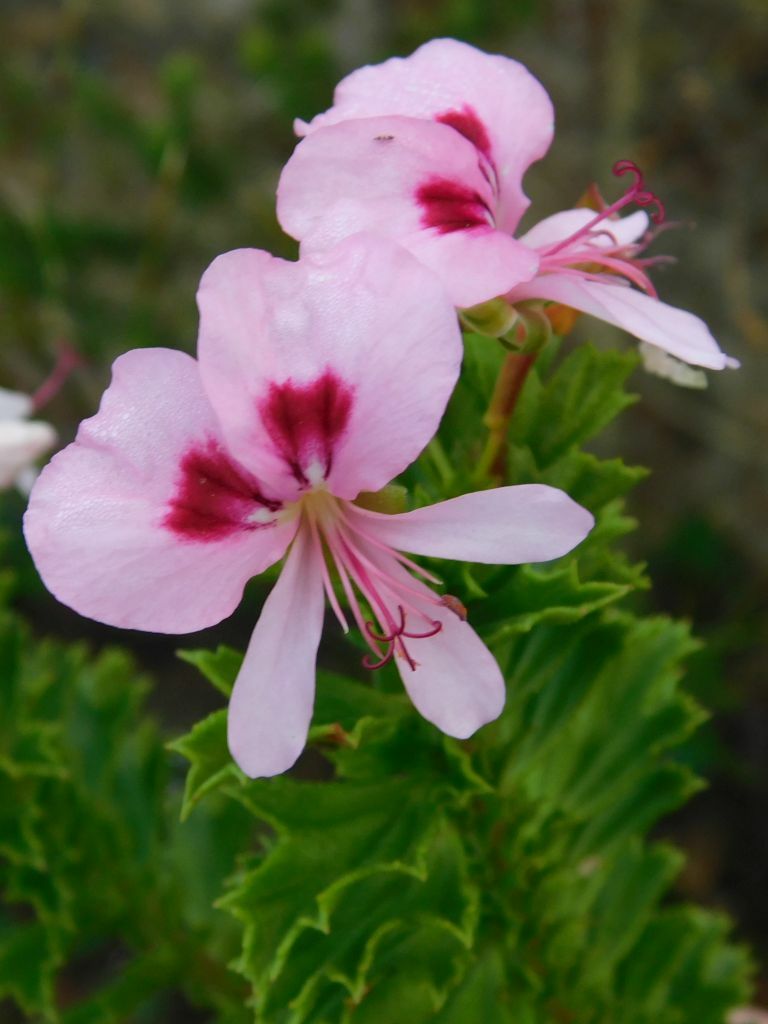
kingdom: Plantae
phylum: Tracheophyta
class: Magnoliopsida
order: Geraniales
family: Geraniaceae
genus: Pelargonium
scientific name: Pelargonium hermaniifolium
